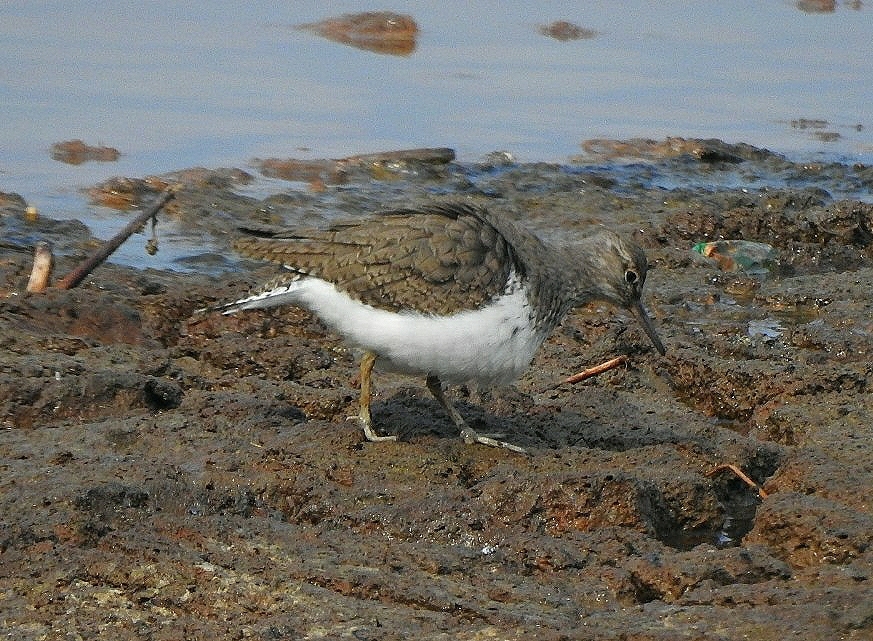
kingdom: Animalia
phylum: Chordata
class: Aves
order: Charadriiformes
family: Scolopacidae
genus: Actitis
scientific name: Actitis hypoleucos
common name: Common sandpiper
